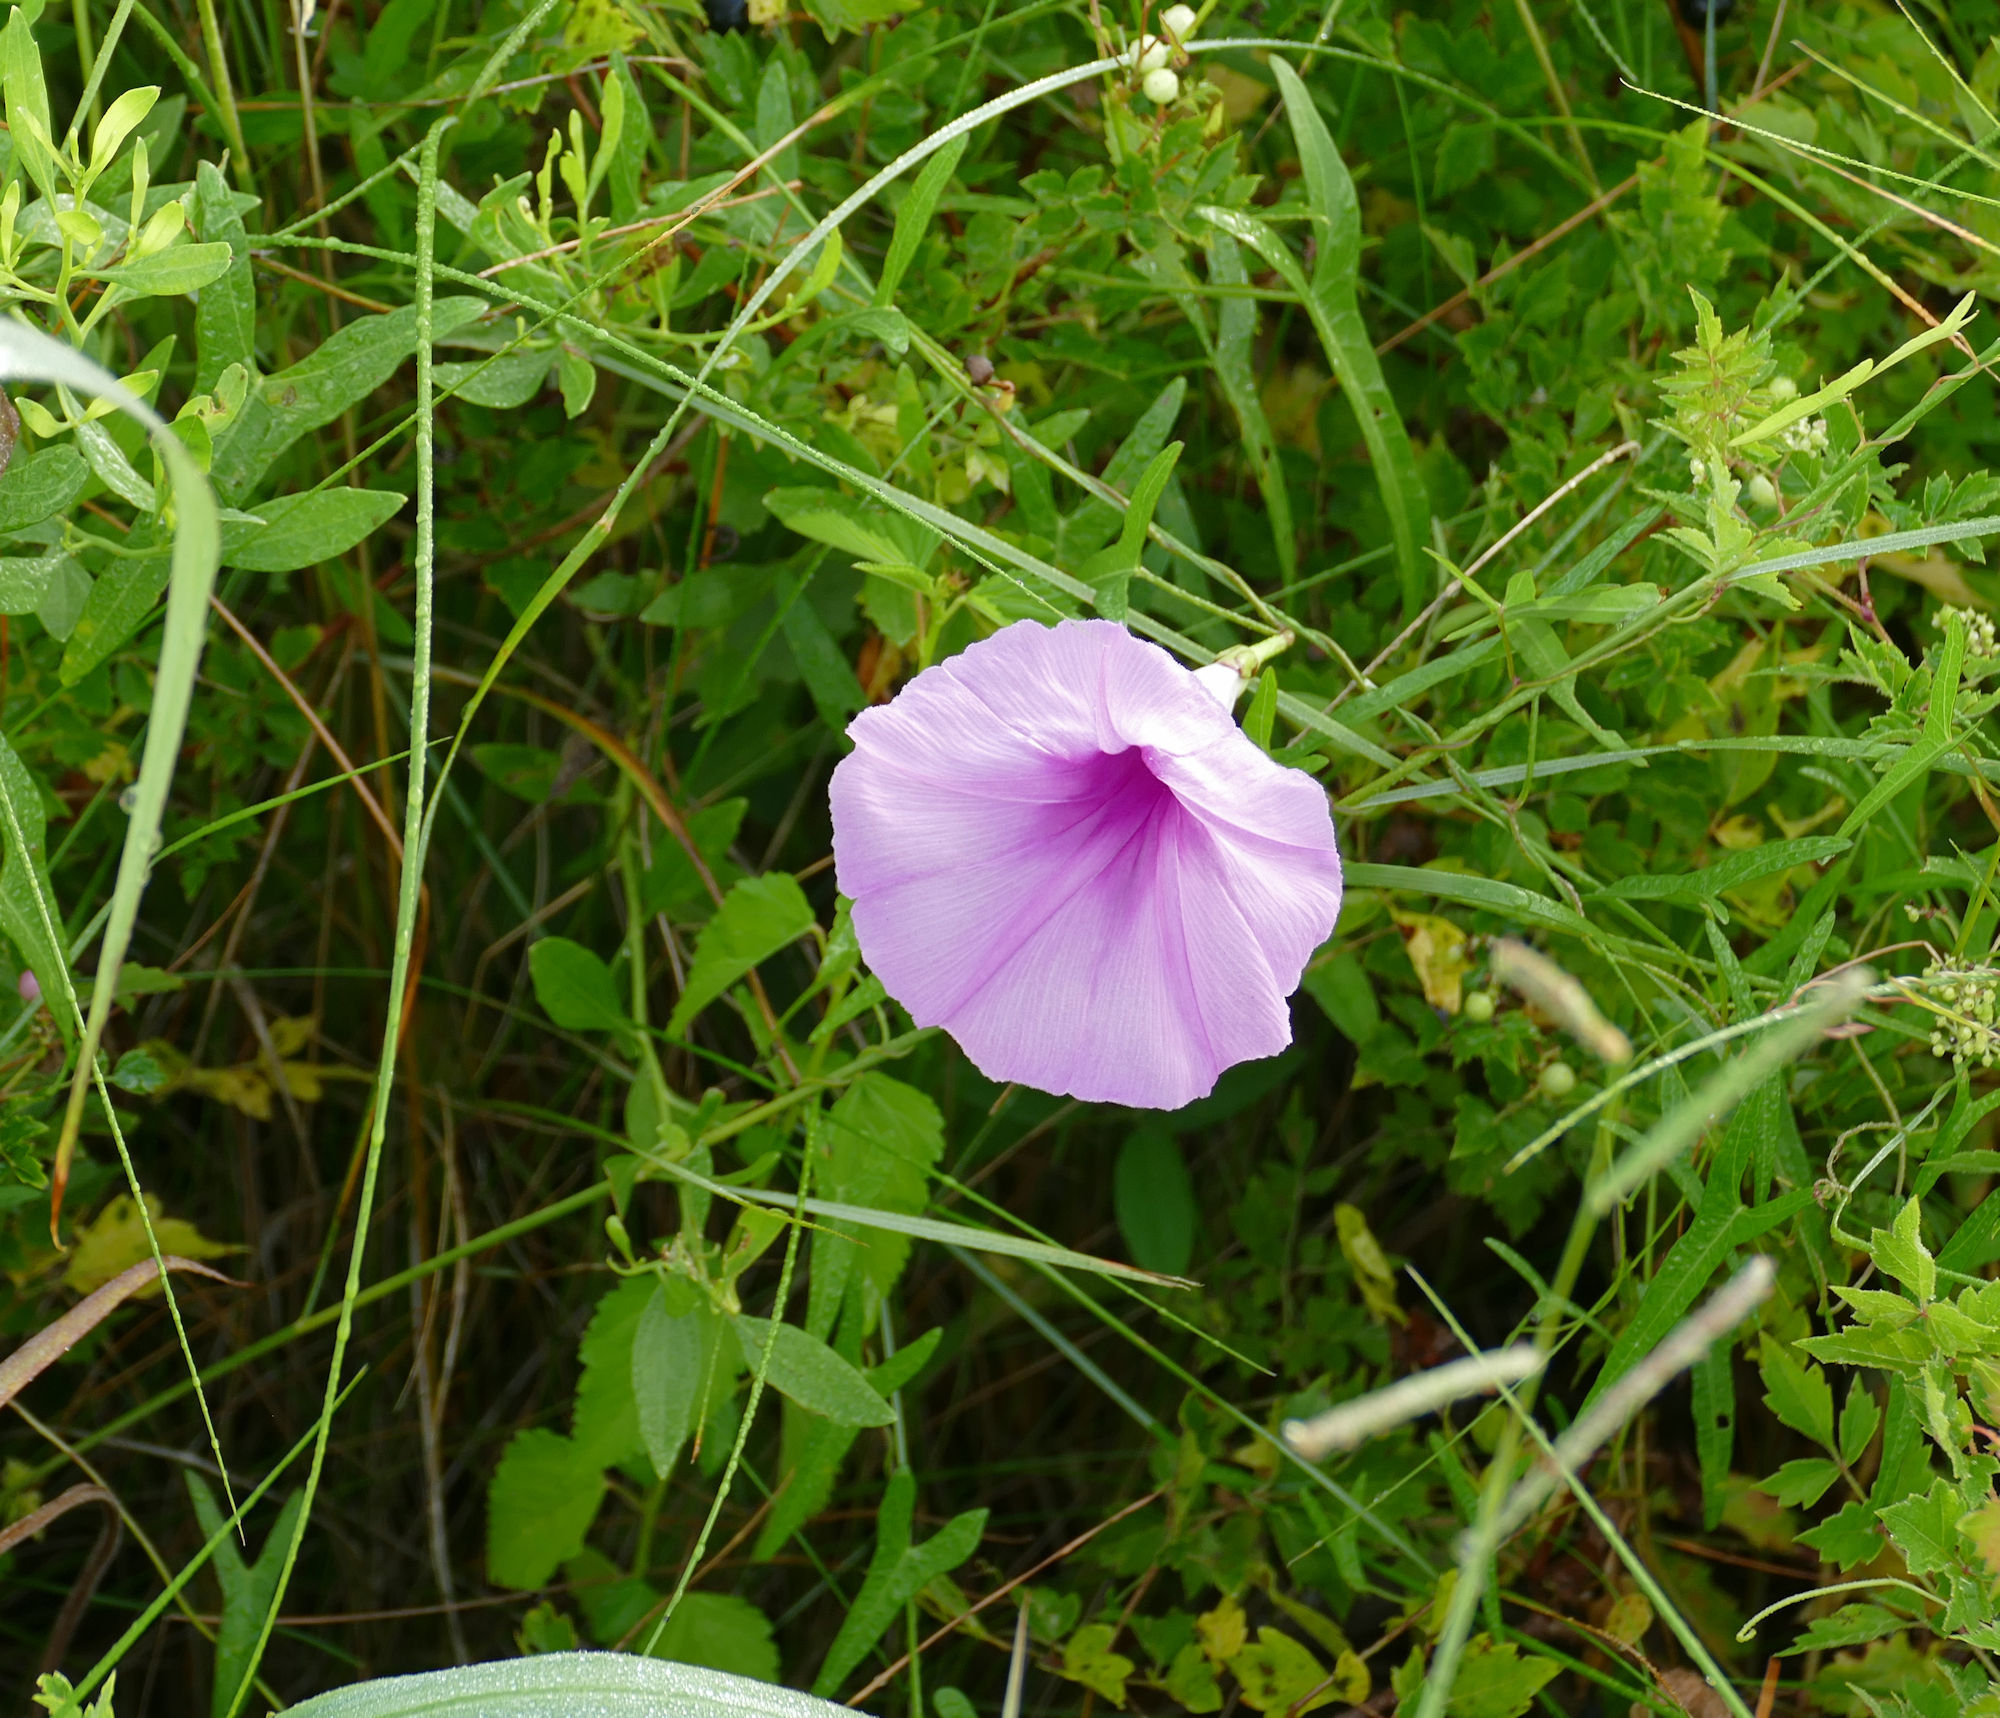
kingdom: Plantae
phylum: Tracheophyta
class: Magnoliopsida
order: Solanales
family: Convolvulaceae
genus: Ipomoea
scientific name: Ipomoea sagittata
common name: Saltmarsh morning glory
